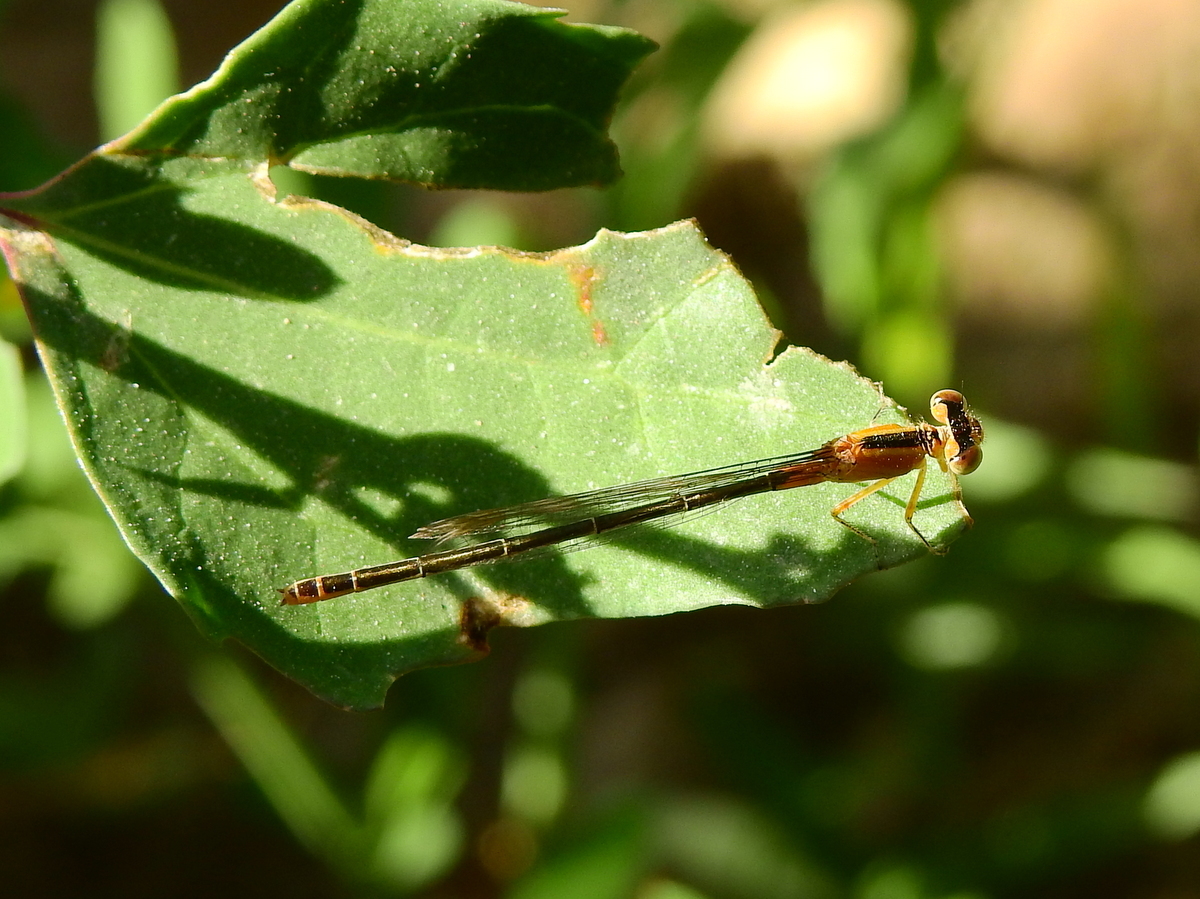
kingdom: Animalia
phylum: Arthropoda
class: Insecta
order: Odonata
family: Coenagrionidae
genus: Ischnura
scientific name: Ischnura fluviatilis
